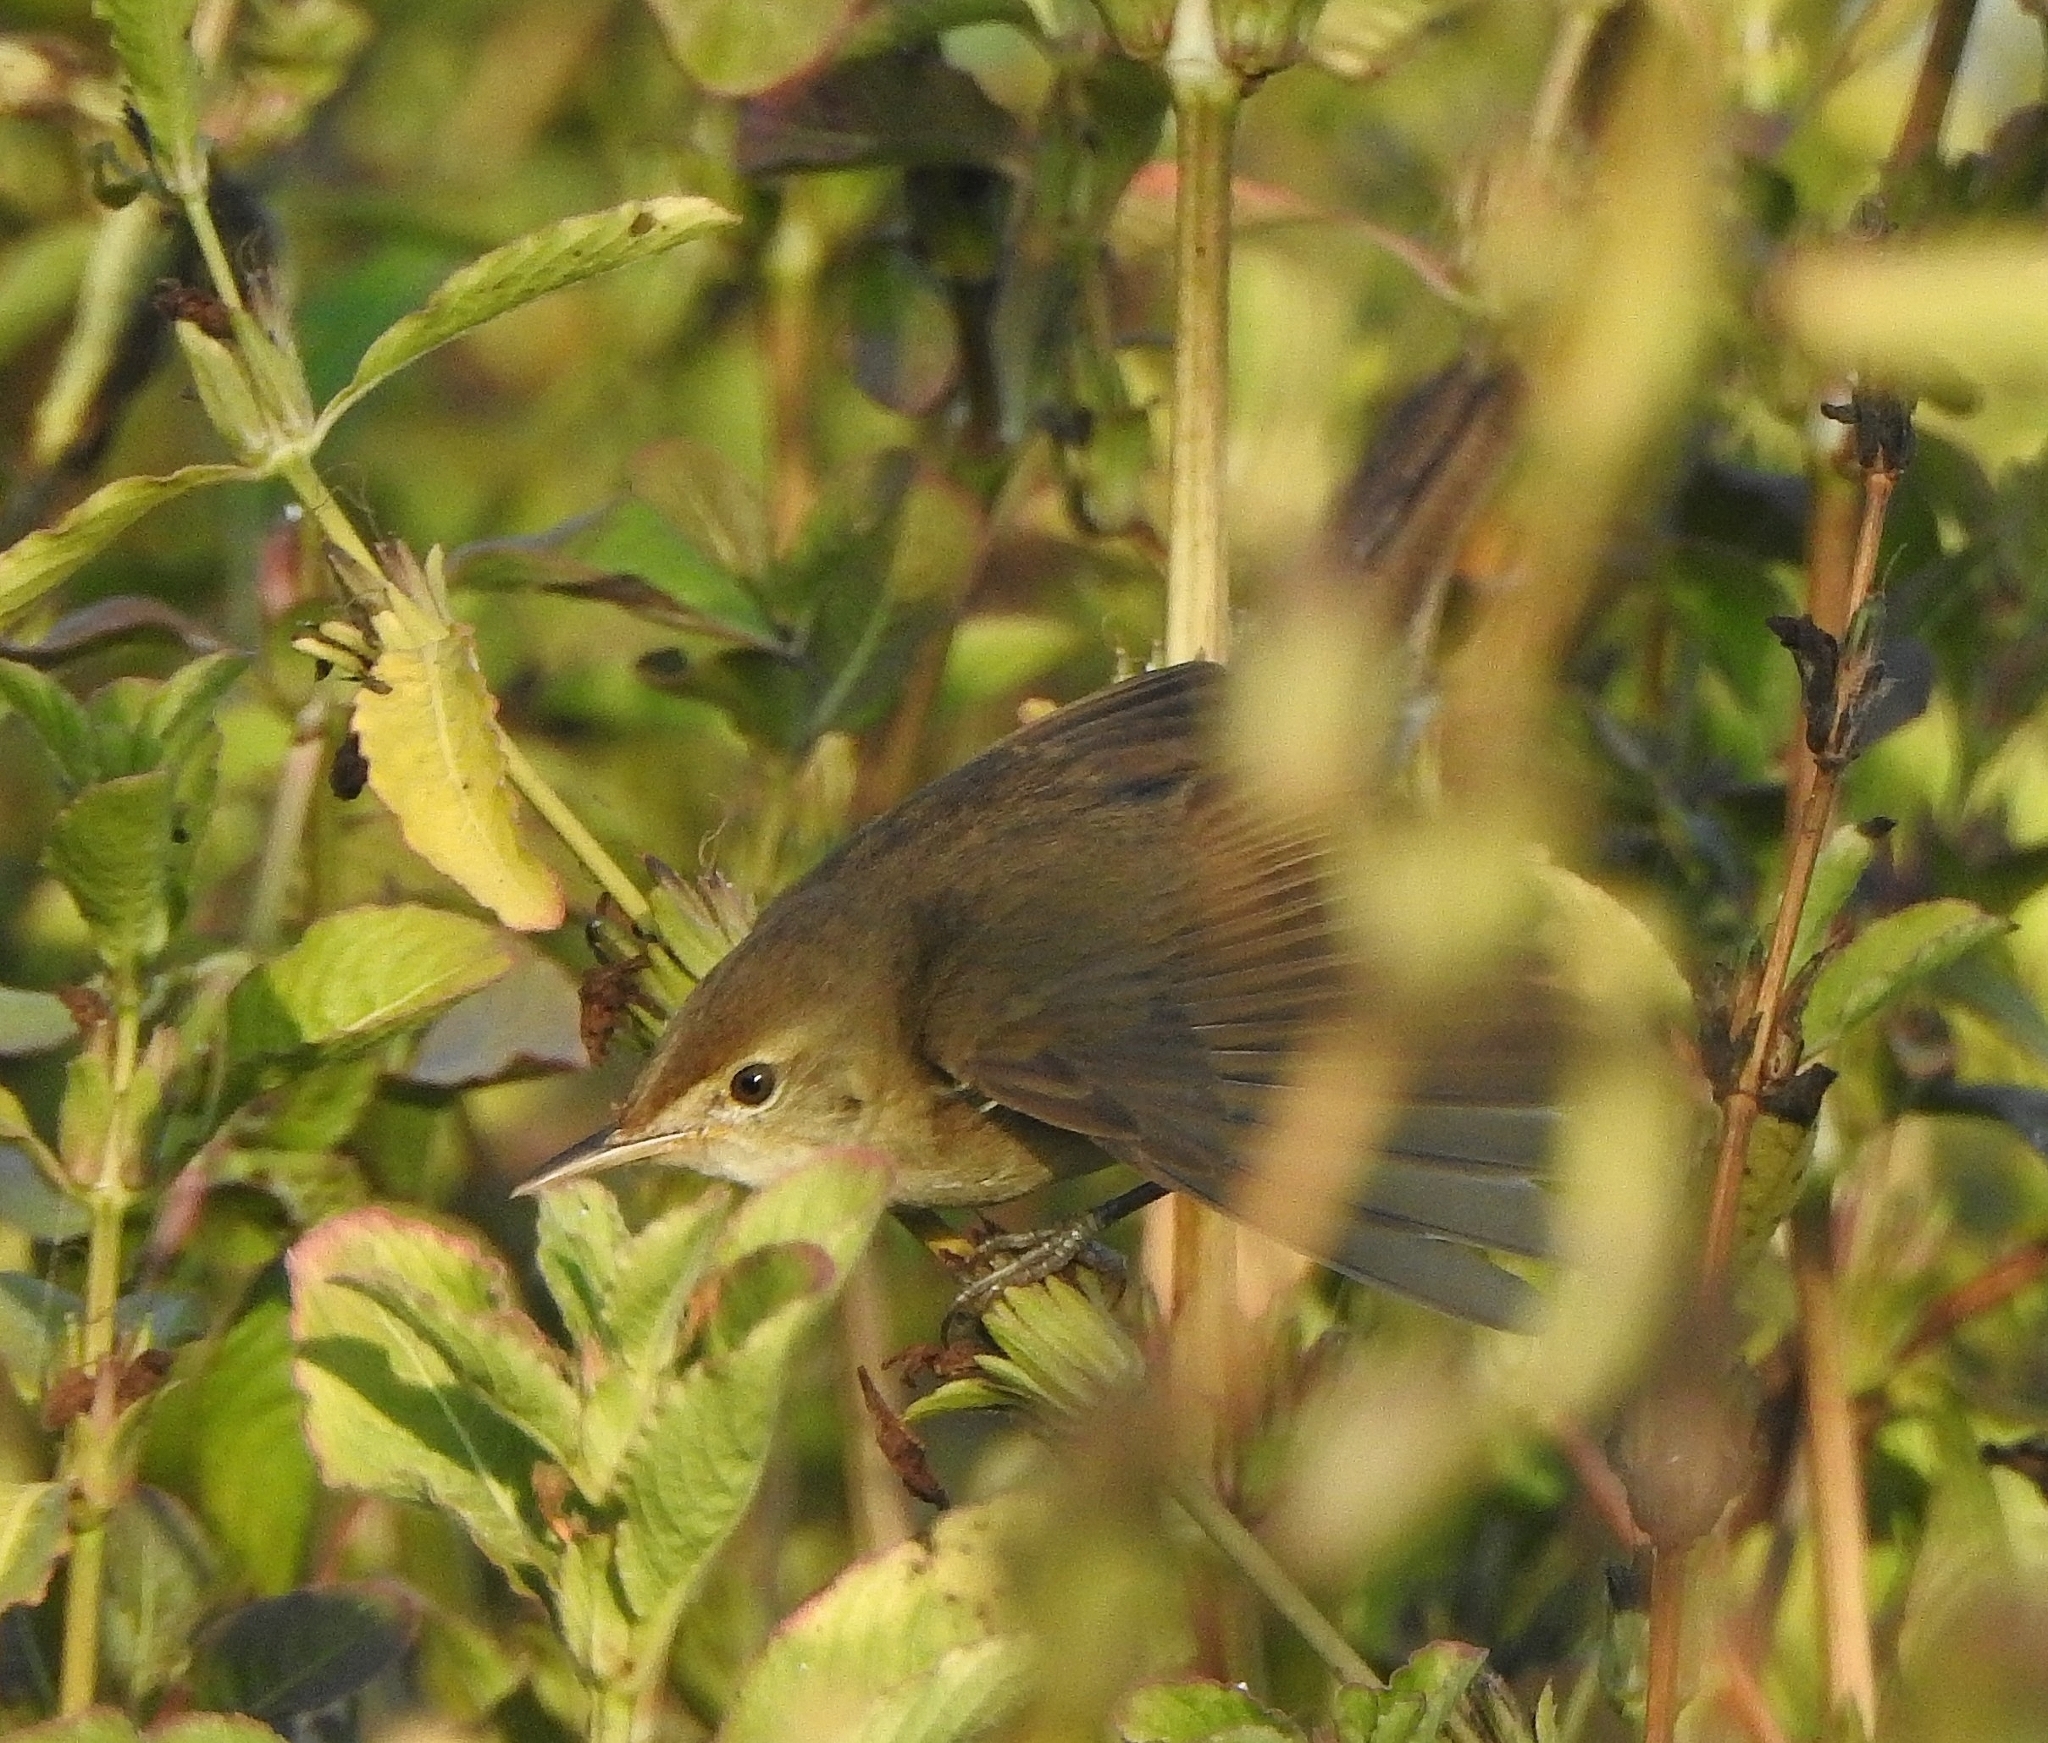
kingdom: Animalia
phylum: Chordata
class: Aves
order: Passeriformes
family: Acrocephalidae
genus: Acrocephalus
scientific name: Acrocephalus dumetorum
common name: Blyth's reed warbler
